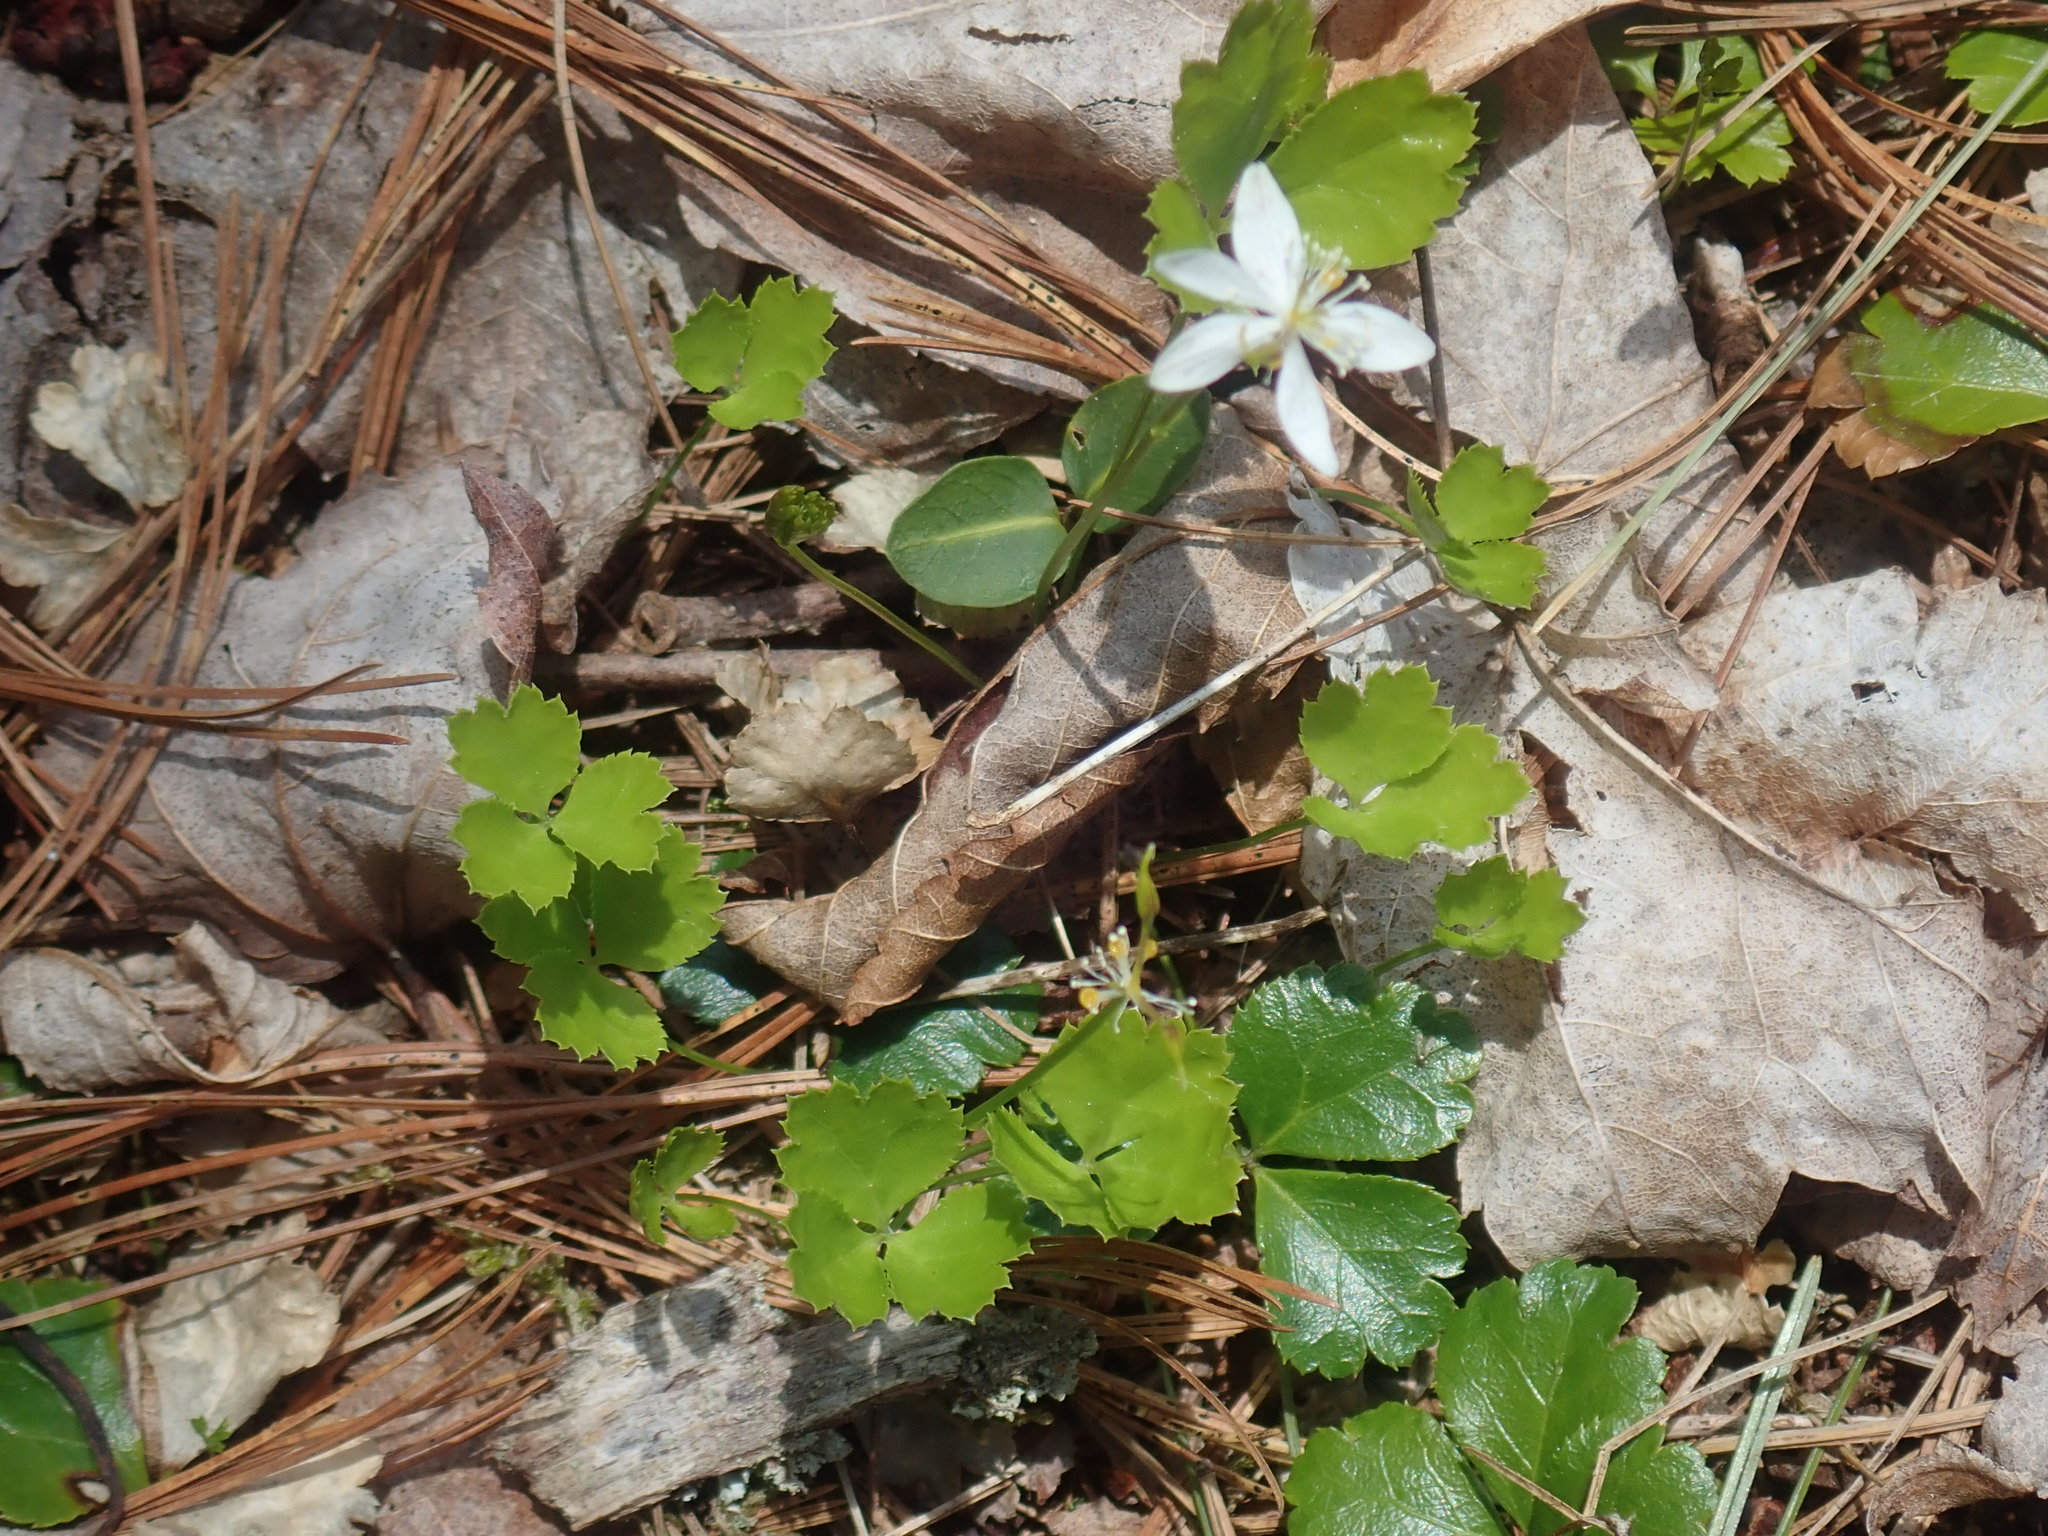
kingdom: Plantae
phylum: Tracheophyta
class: Magnoliopsida
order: Ranunculales
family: Ranunculaceae
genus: Coptis
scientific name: Coptis trifolia
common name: Canker-root
